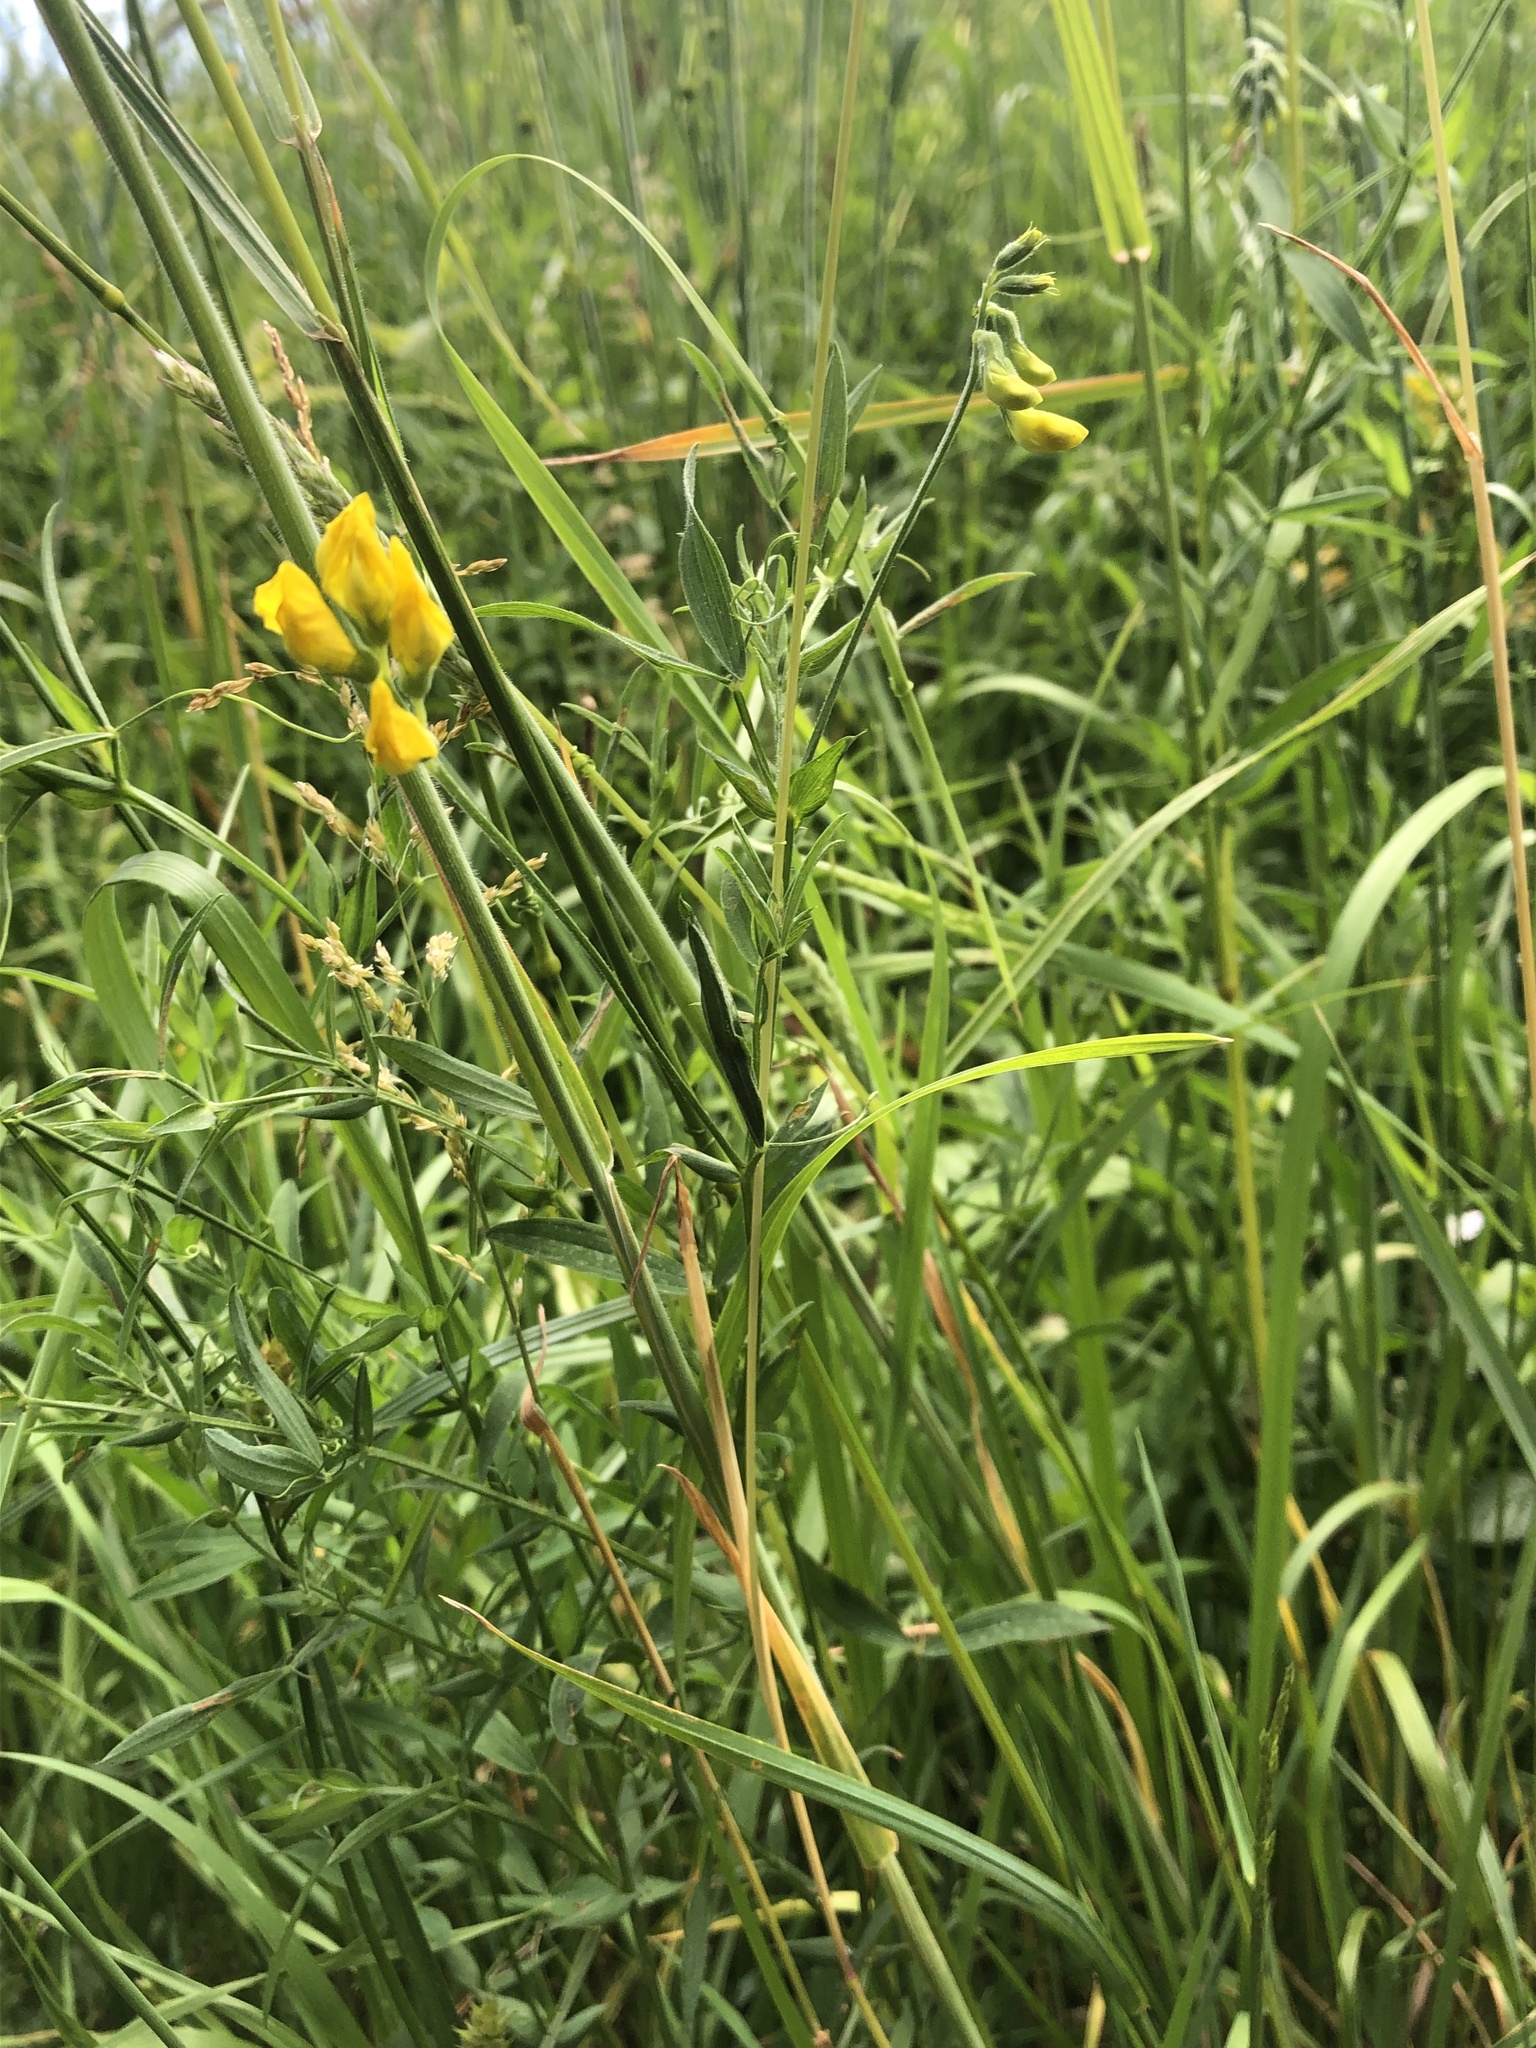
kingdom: Plantae
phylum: Tracheophyta
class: Magnoliopsida
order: Fabales
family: Fabaceae
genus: Lathyrus
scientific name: Lathyrus pratensis
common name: Meadow vetchling
